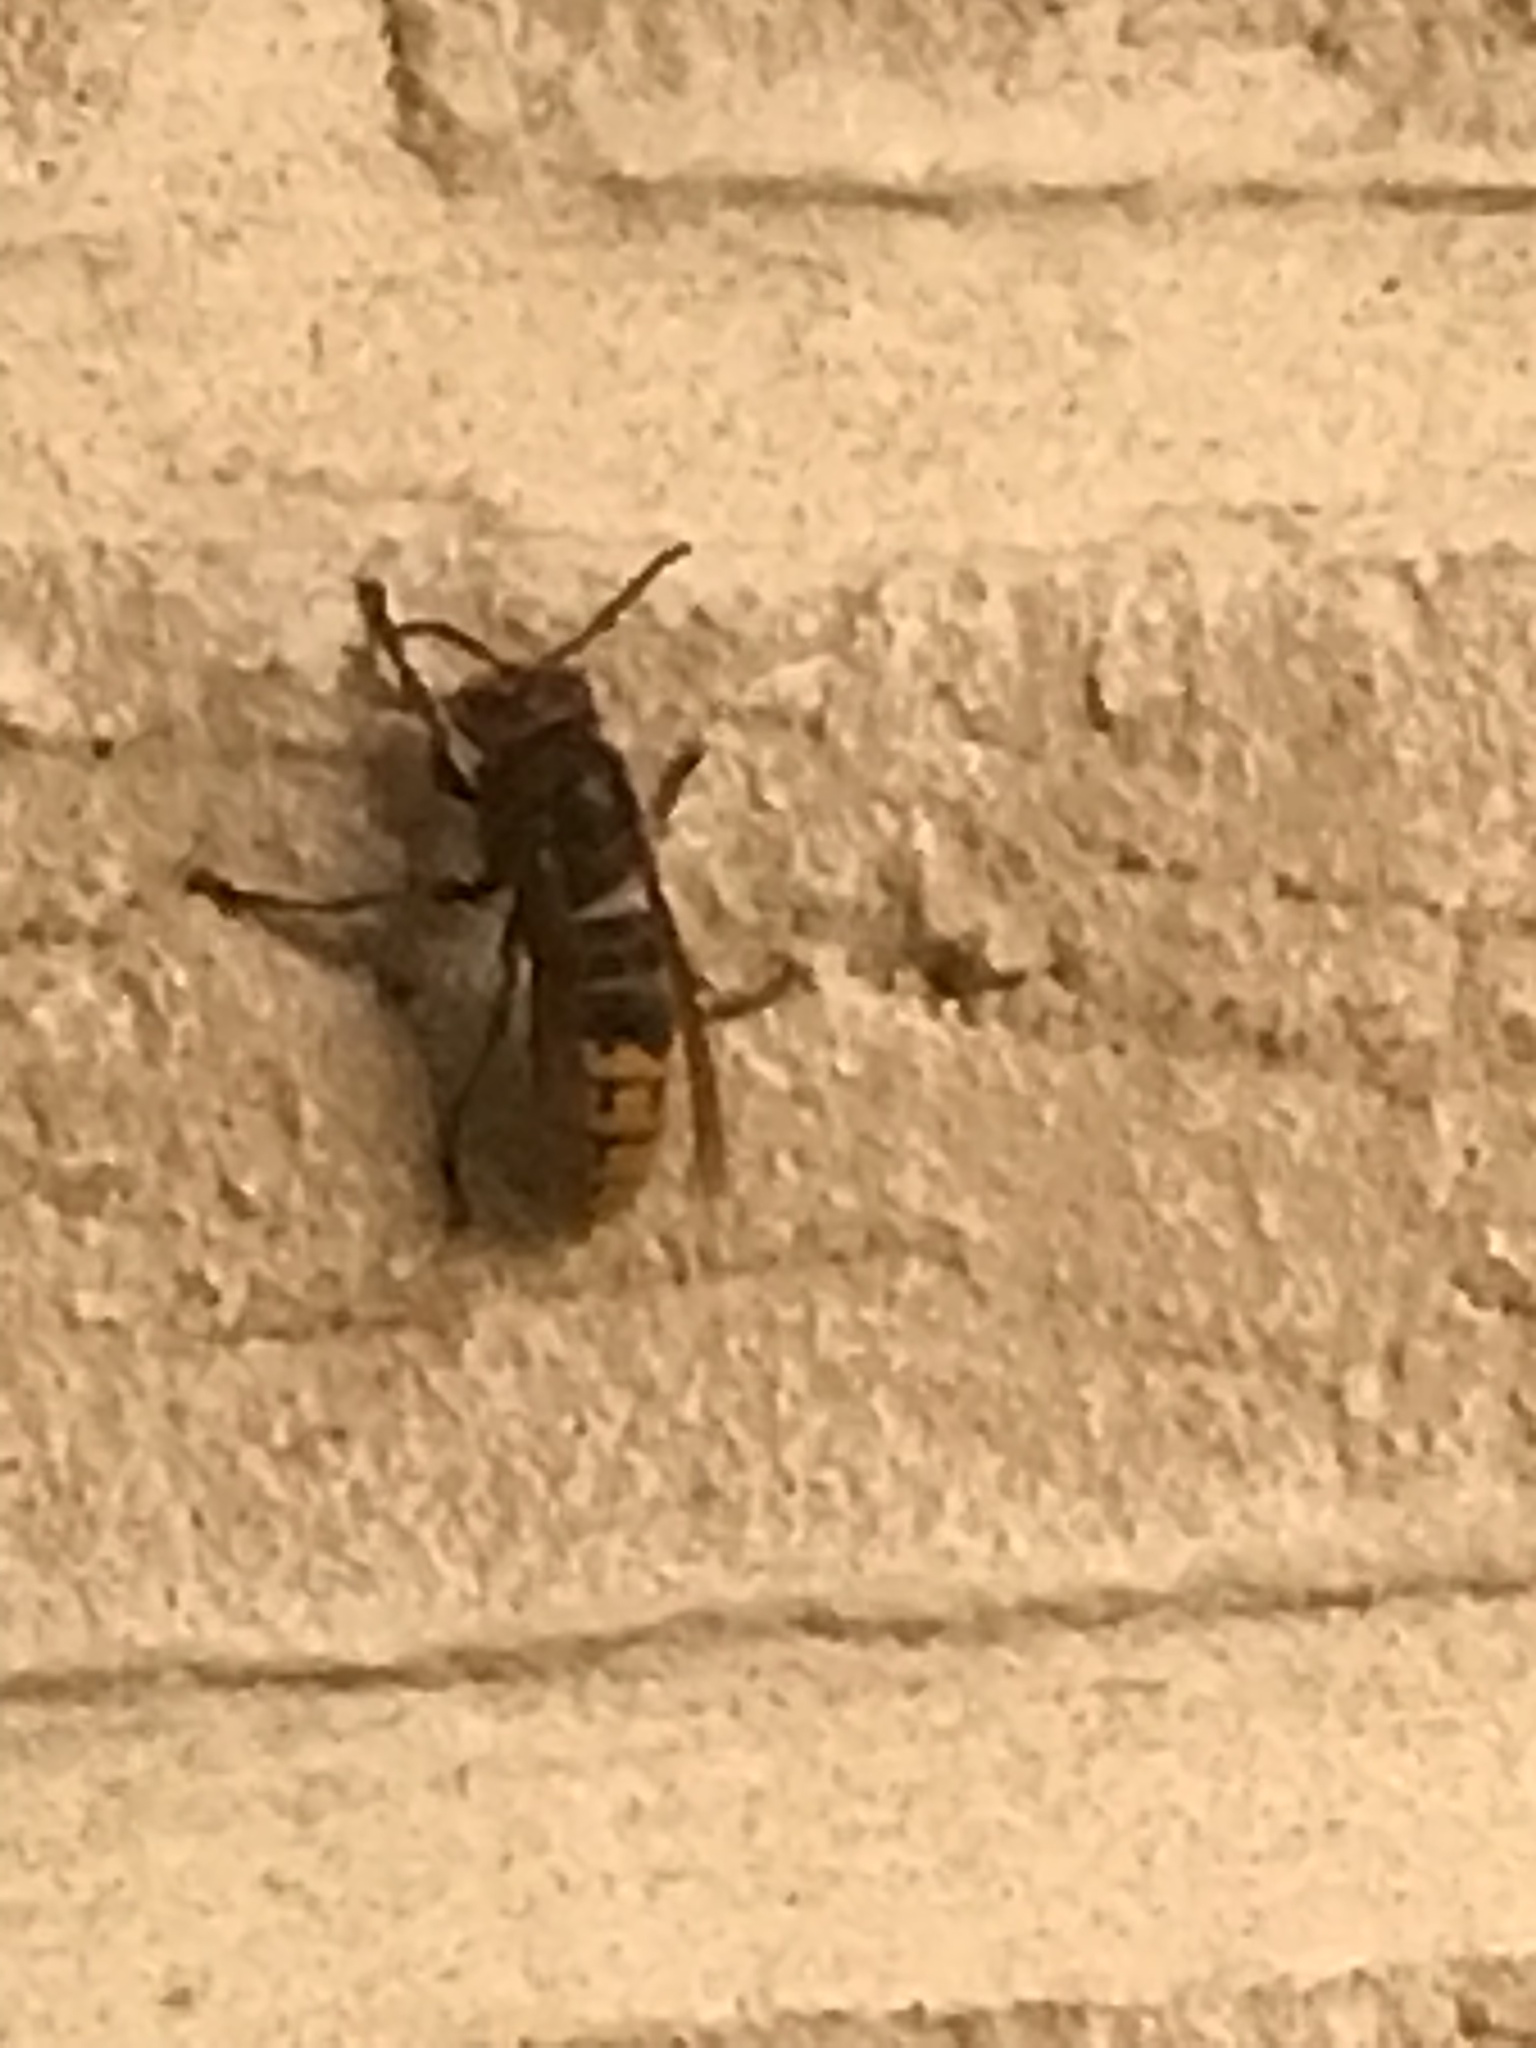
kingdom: Animalia
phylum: Arthropoda
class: Insecta
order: Hymenoptera
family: Vespidae
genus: Vespa
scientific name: Vespa crabro
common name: Hornet
